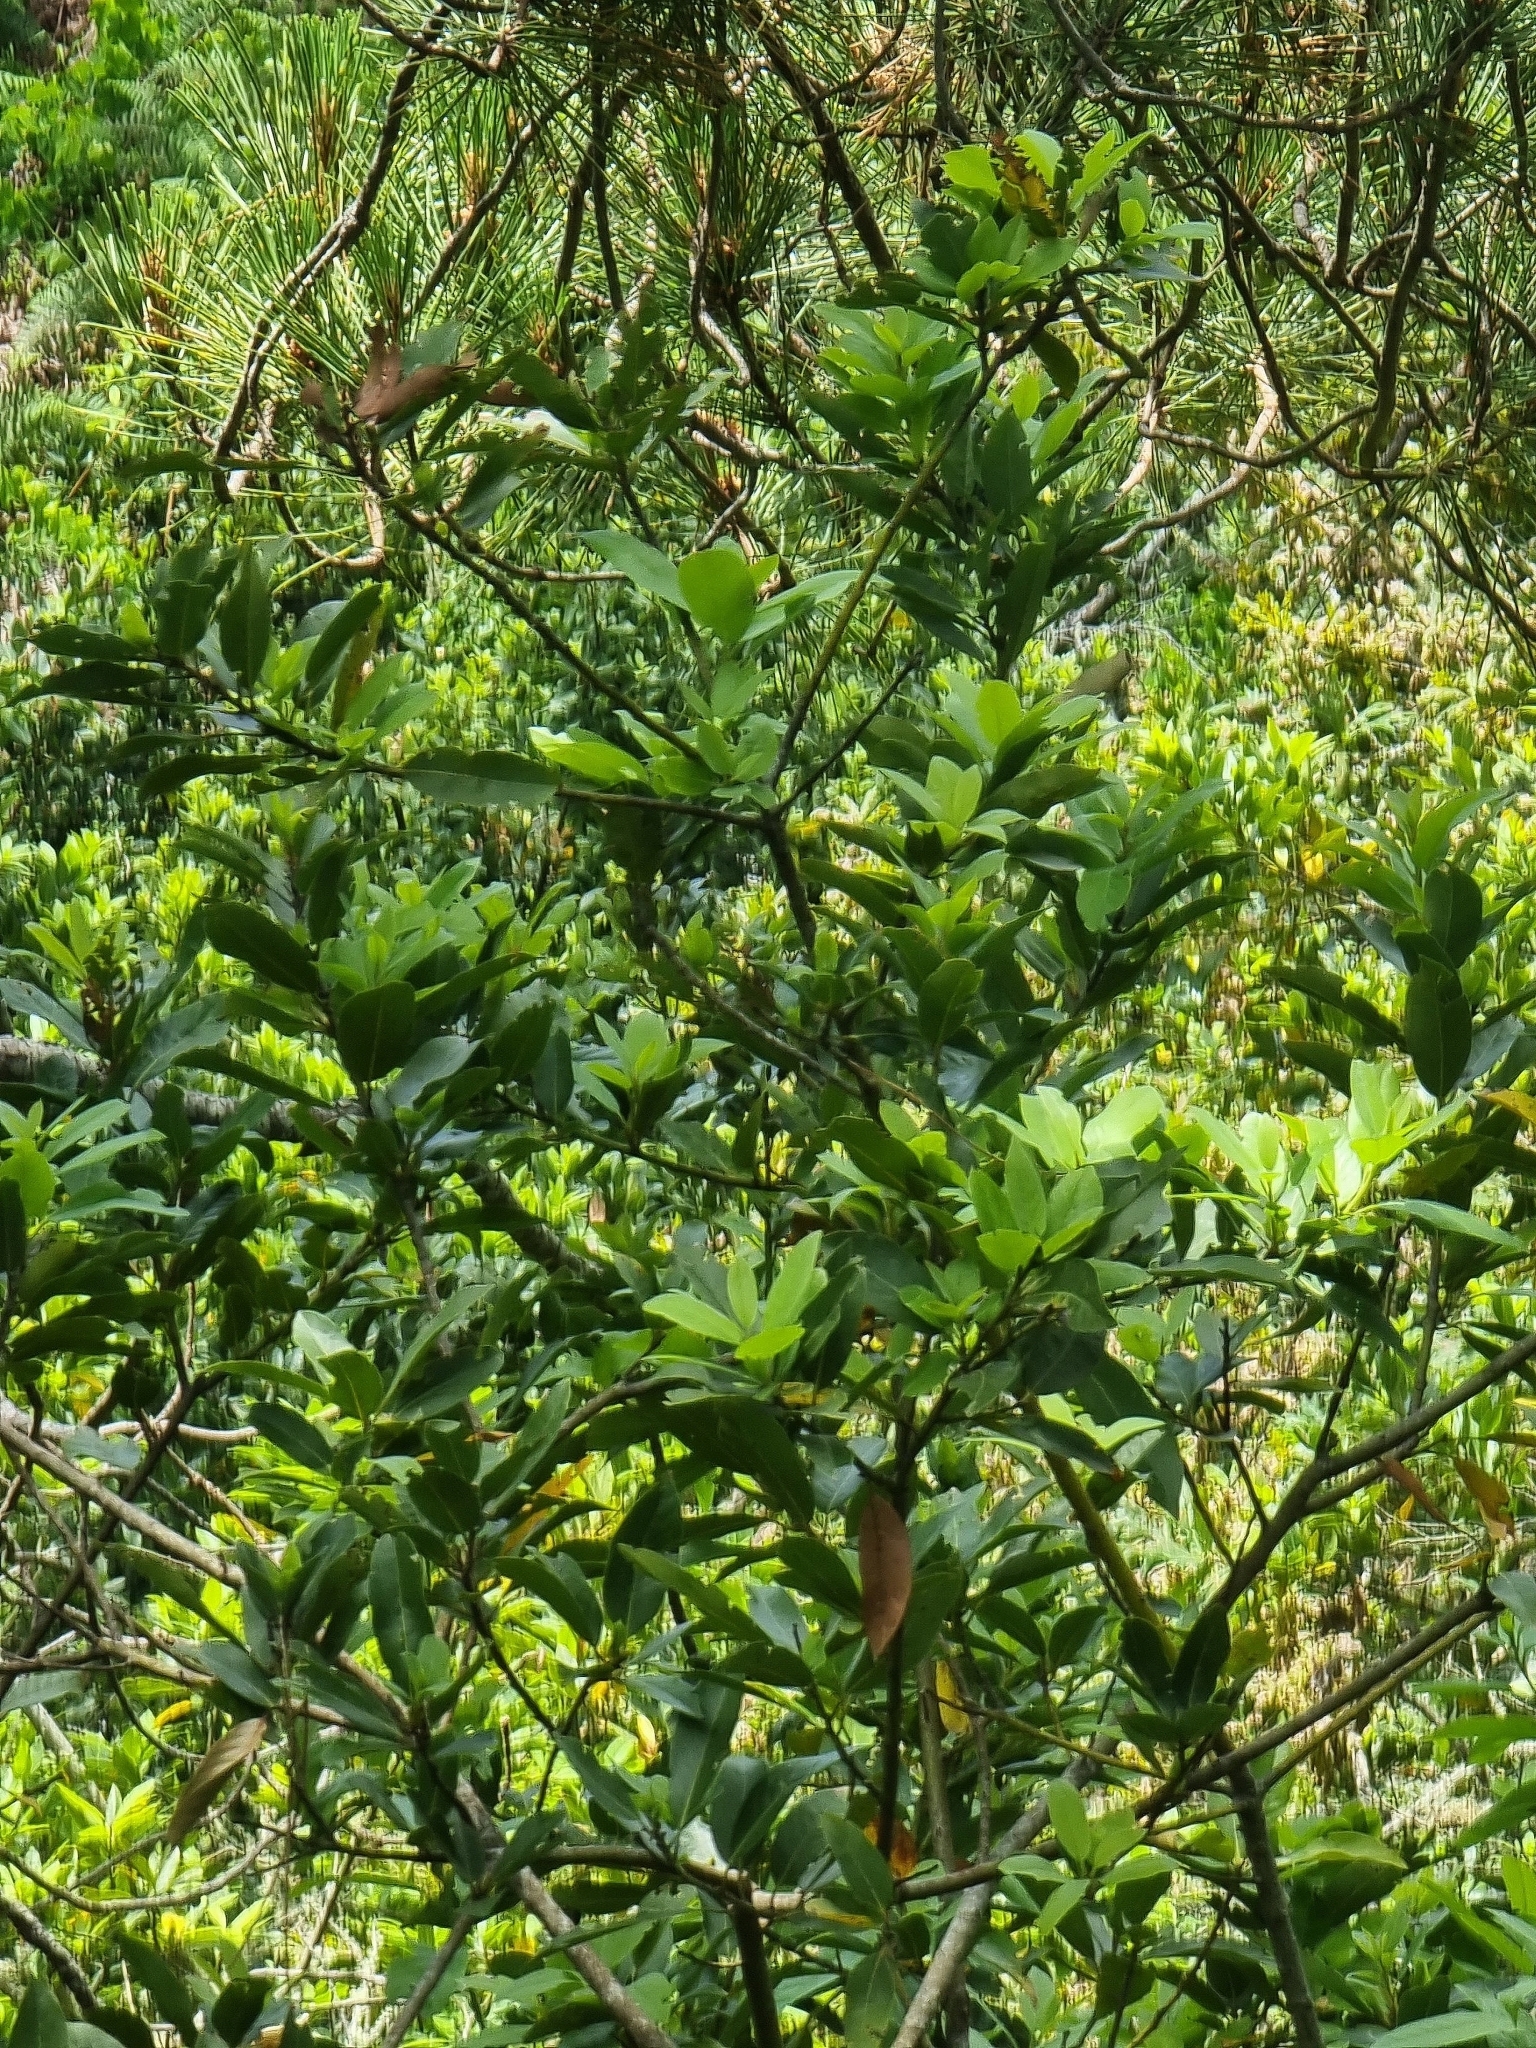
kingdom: Plantae
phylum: Tracheophyta
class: Magnoliopsida
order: Laurales
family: Lauraceae
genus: Laurus
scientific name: Laurus novocanariensis
